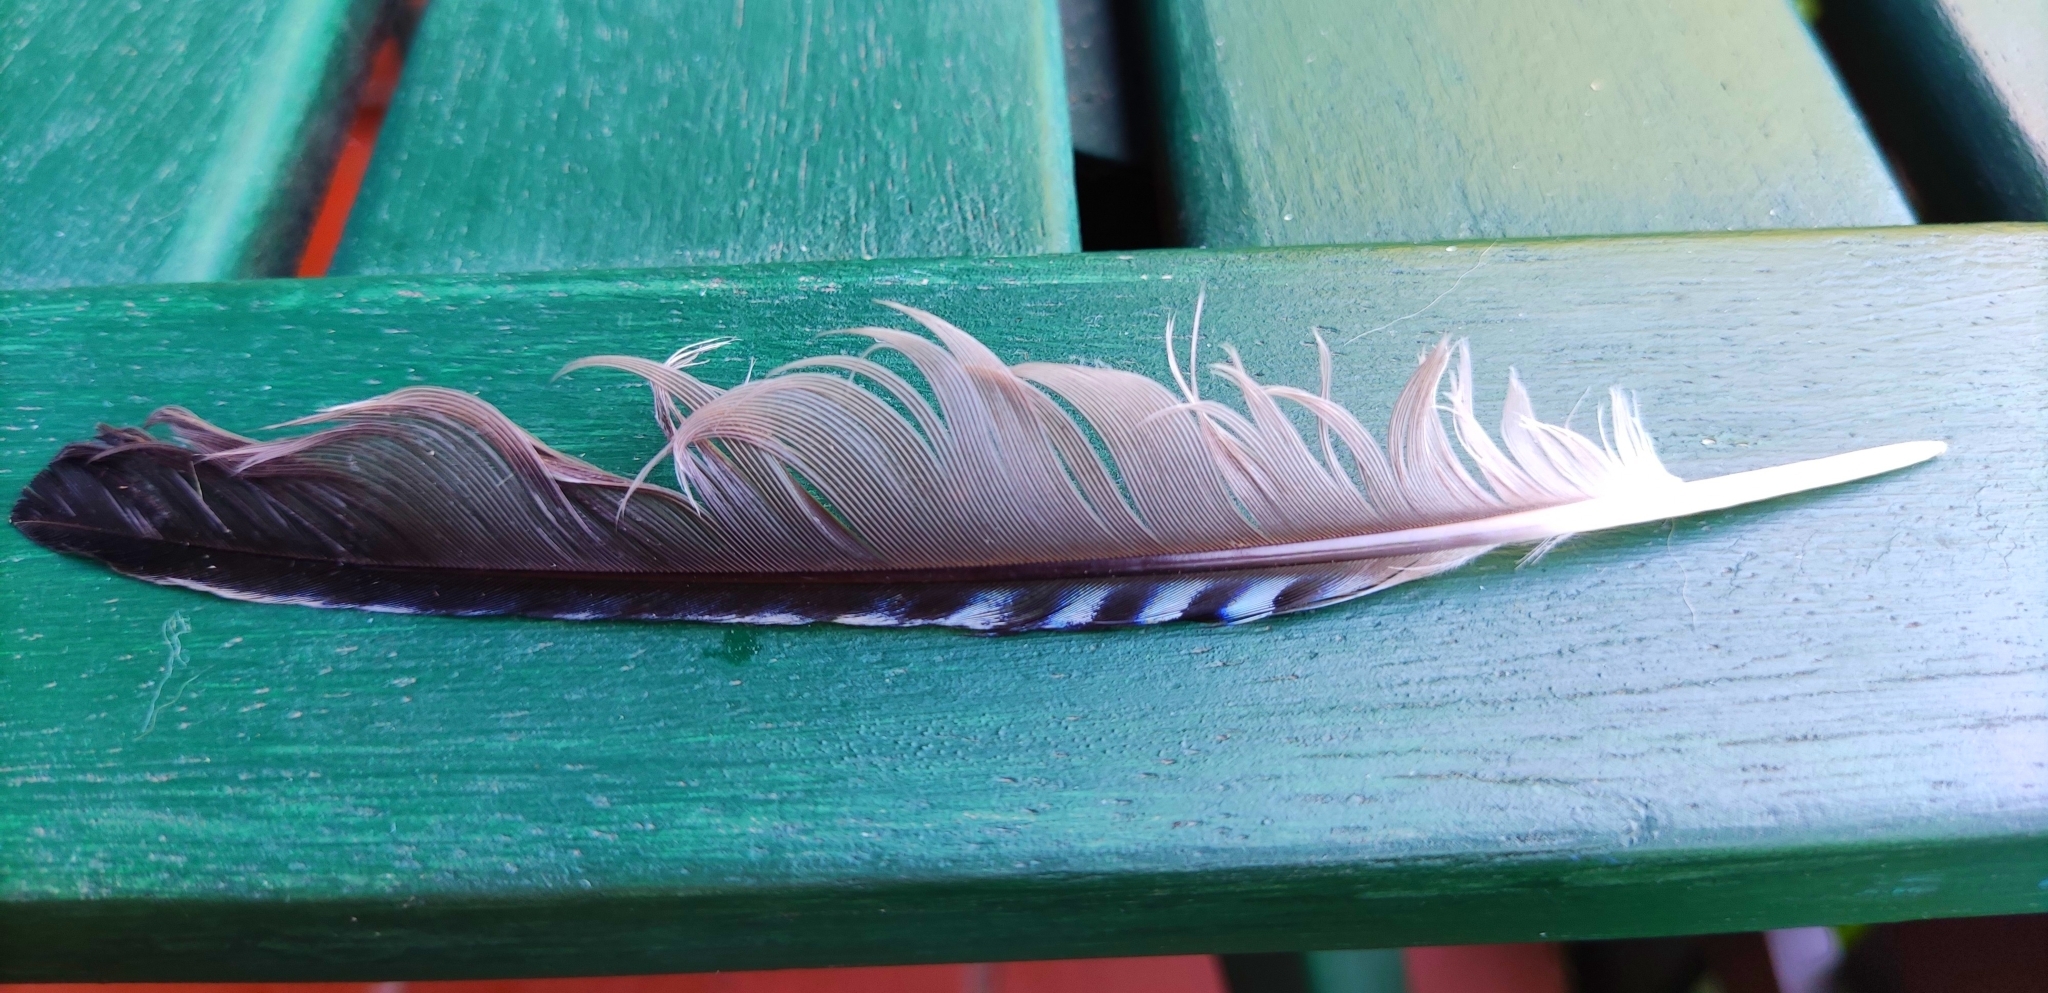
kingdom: Animalia
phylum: Chordata
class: Aves
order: Passeriformes
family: Corvidae
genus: Garrulus
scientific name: Garrulus glandarius
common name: Eurasian jay
